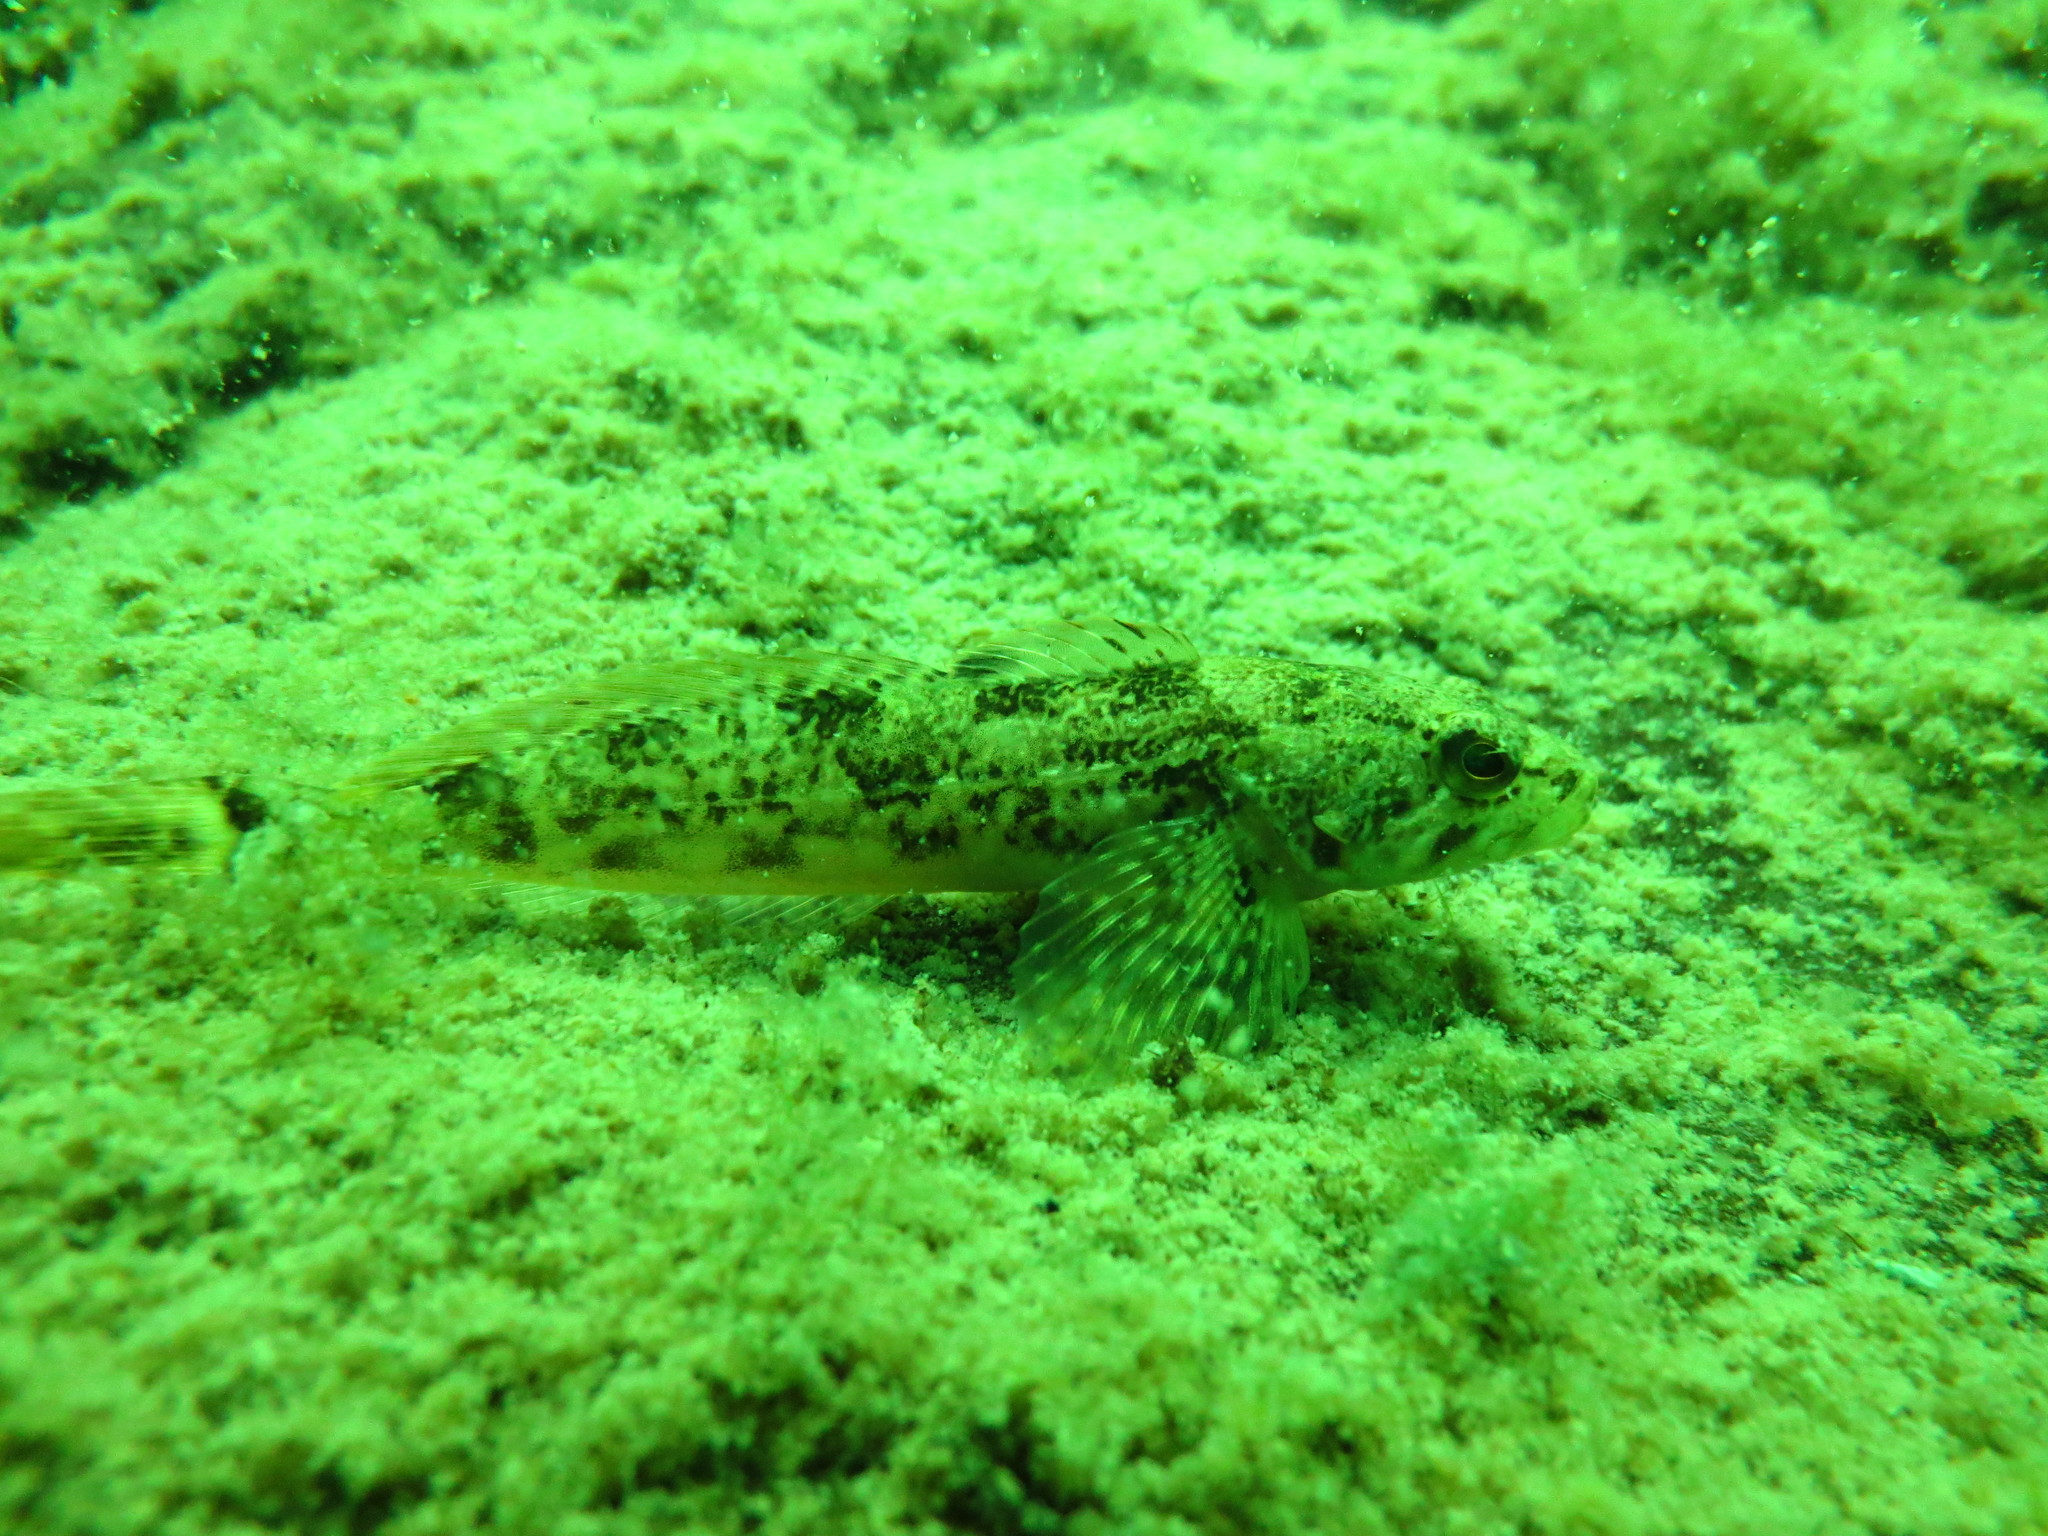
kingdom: Animalia
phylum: Chordata
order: Scorpaeniformes
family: Cottidae
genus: Cottus
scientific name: Cottus asper
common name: Prickly sculpin
